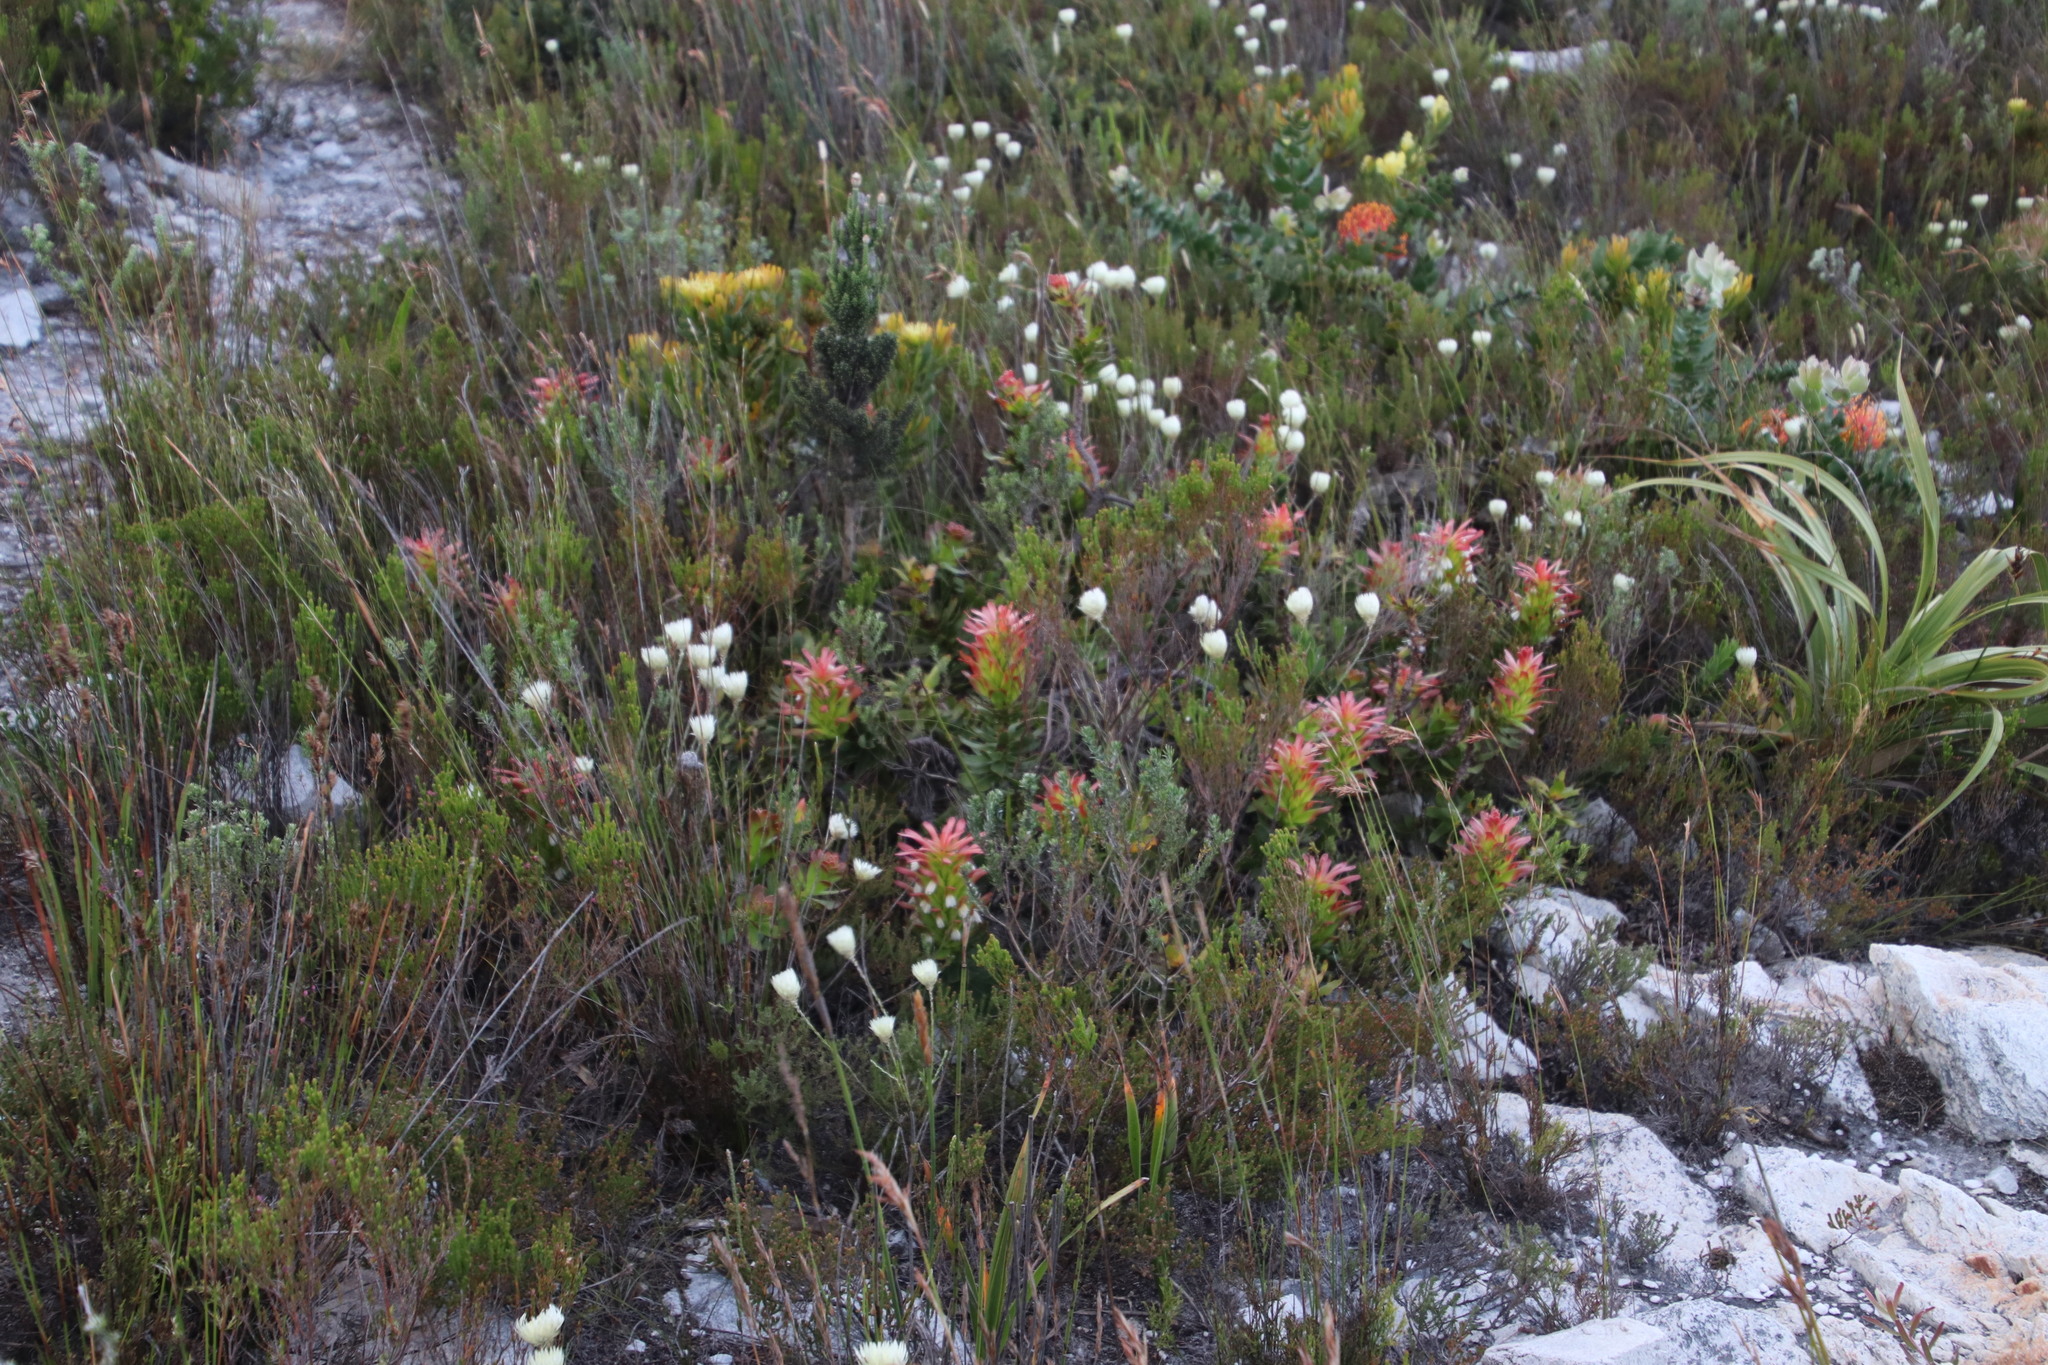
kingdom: Plantae
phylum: Tracheophyta
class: Magnoliopsida
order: Proteales
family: Proteaceae
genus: Mimetes
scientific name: Mimetes cucullatus
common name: Common pagoda
